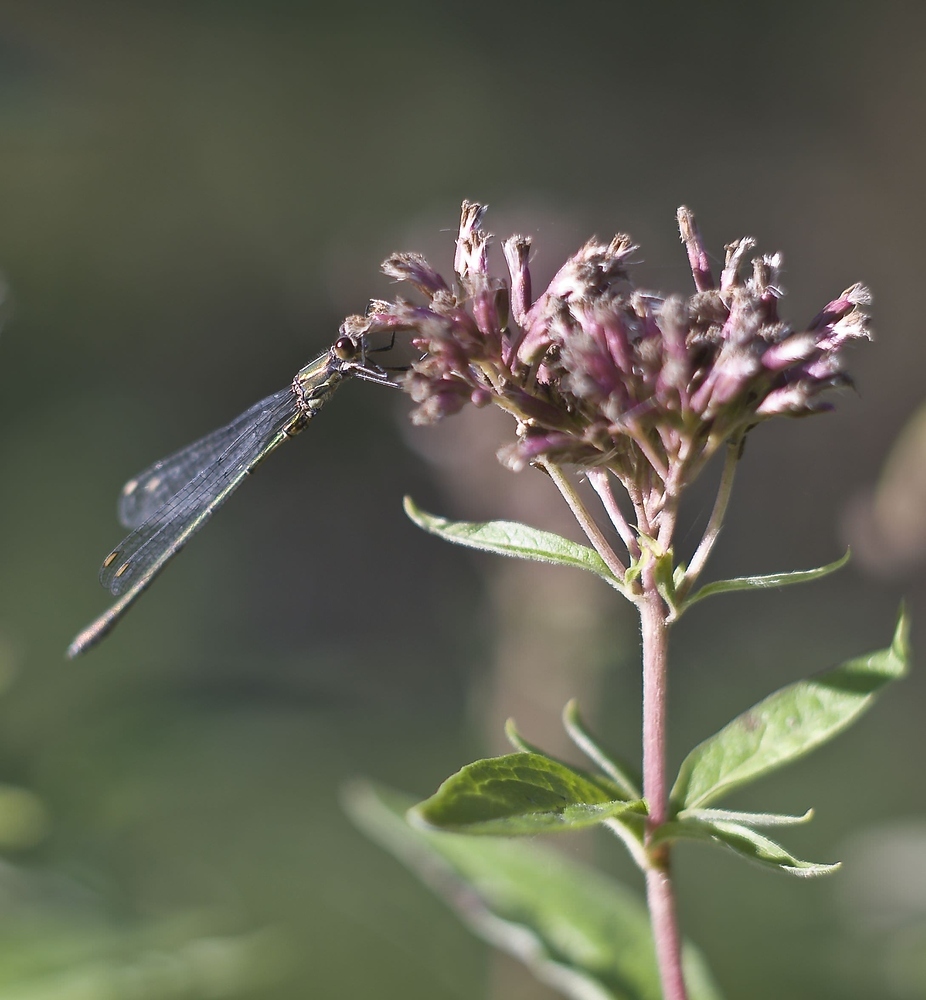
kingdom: Animalia
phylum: Arthropoda
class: Insecta
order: Odonata
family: Lestidae
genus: Chalcolestes
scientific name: Chalcolestes viridis
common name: Green emerald damselfly
